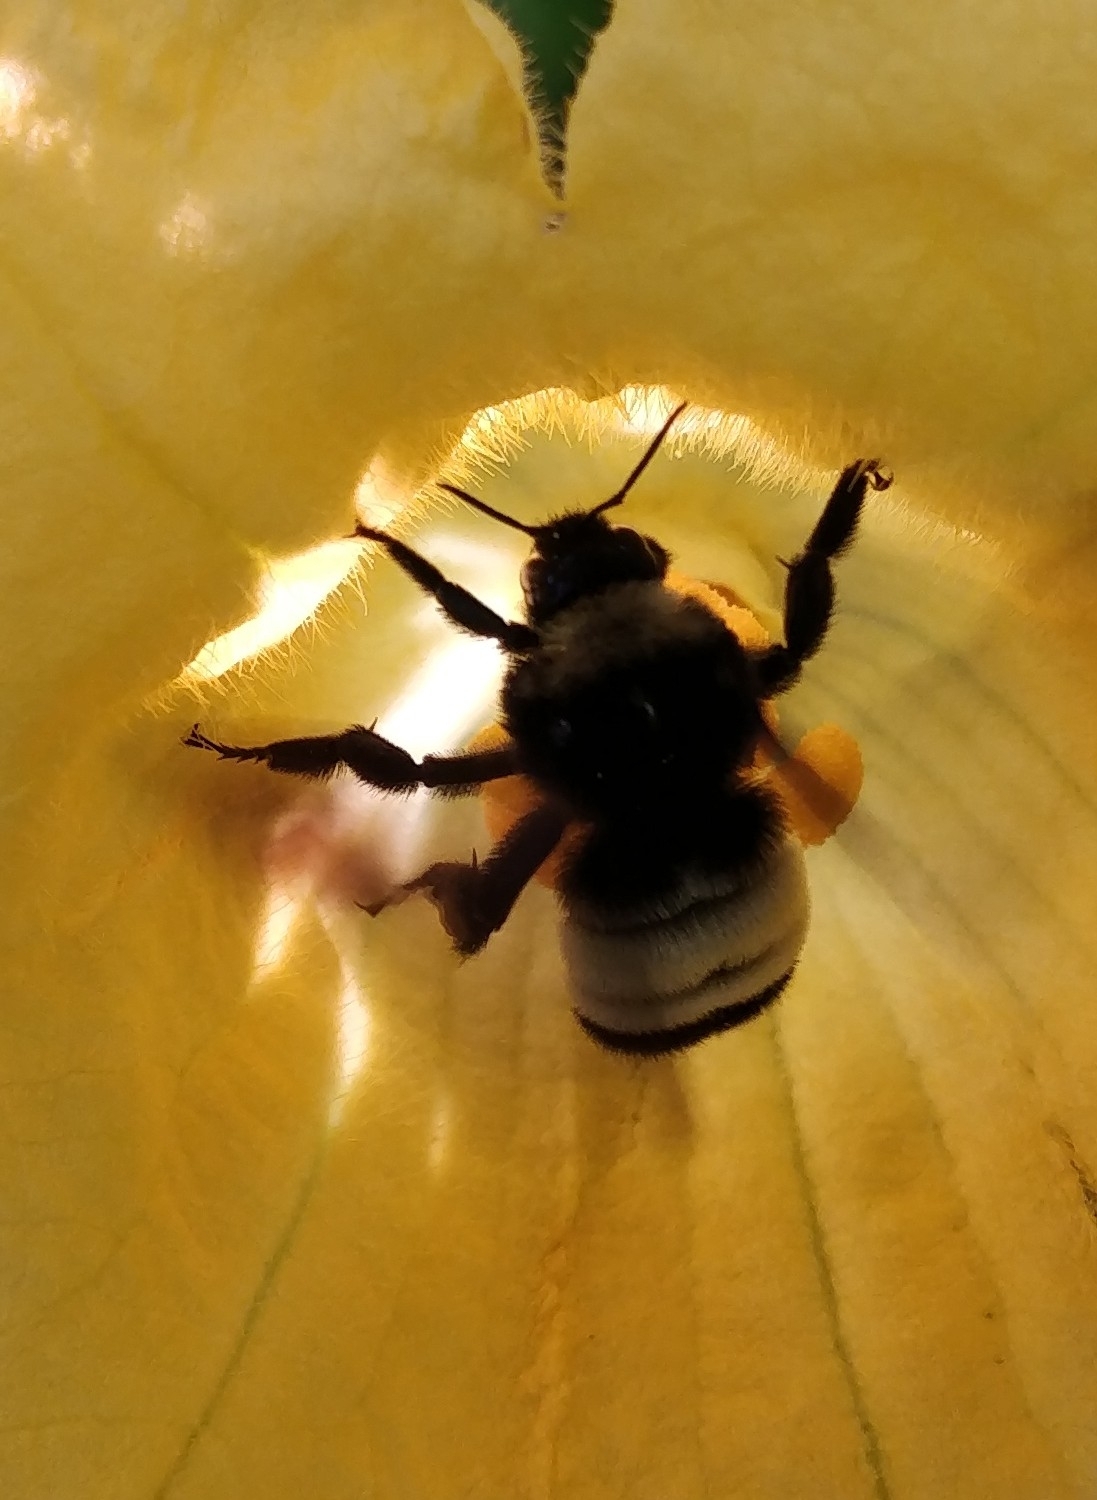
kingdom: Animalia
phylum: Arthropoda
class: Insecta
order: Hymenoptera
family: Apidae
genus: Bombus
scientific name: Bombus pensylvanicus
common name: Bumble bee
